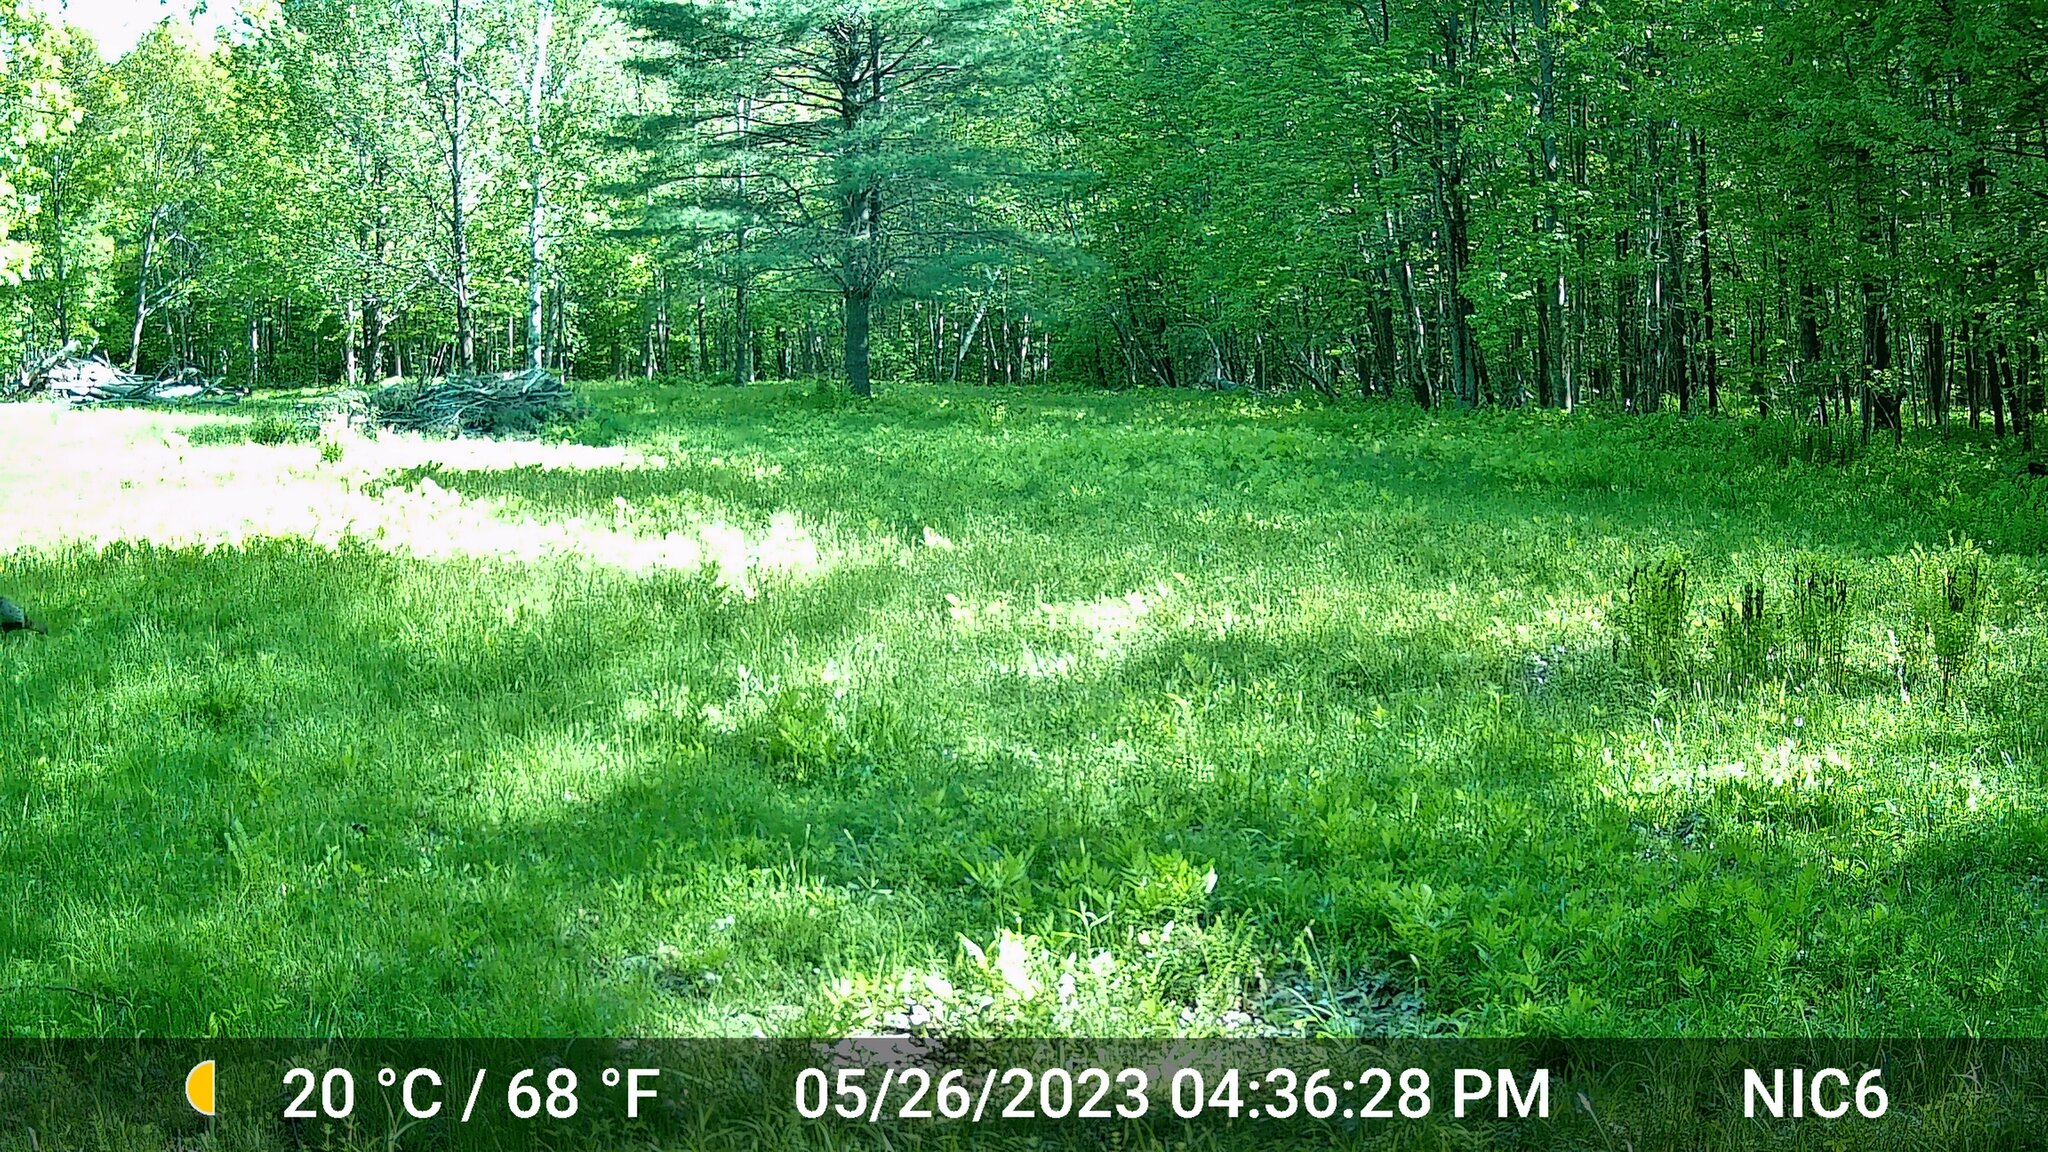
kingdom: Animalia
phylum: Chordata
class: Aves
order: Galliformes
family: Phasianidae
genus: Meleagris
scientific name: Meleagris gallopavo
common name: Wild turkey
